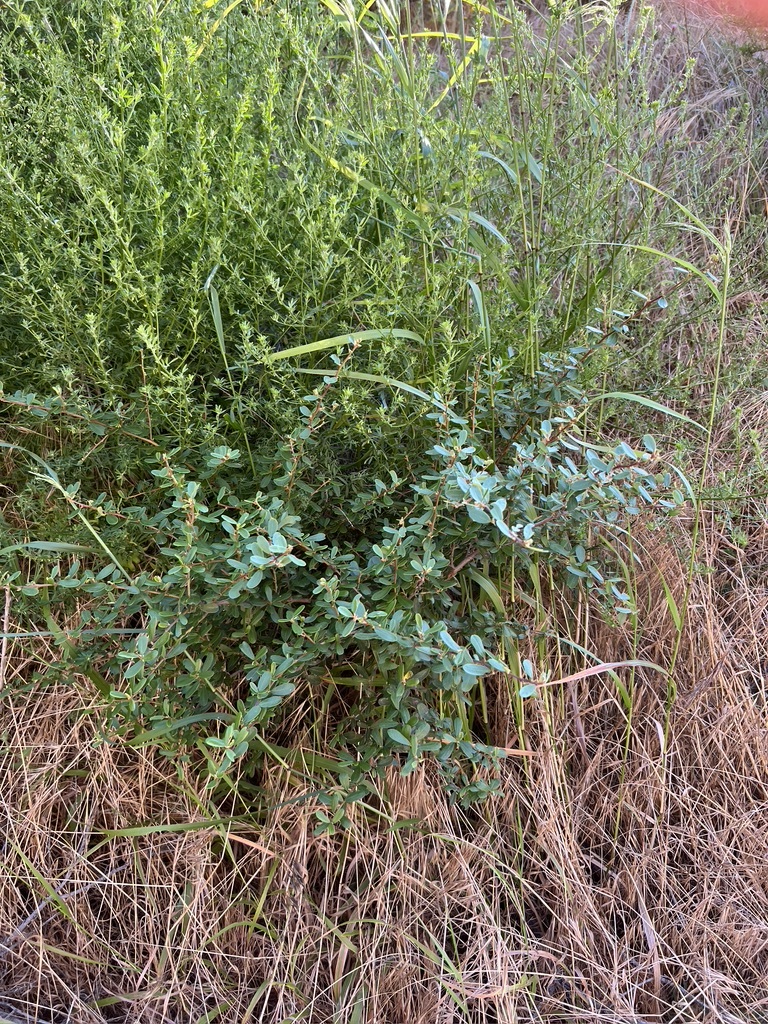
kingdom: Plantae
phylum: Tracheophyta
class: Magnoliopsida
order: Rosales
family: Rhamnaceae
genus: Ceanothus
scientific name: Ceanothus megacarpus
